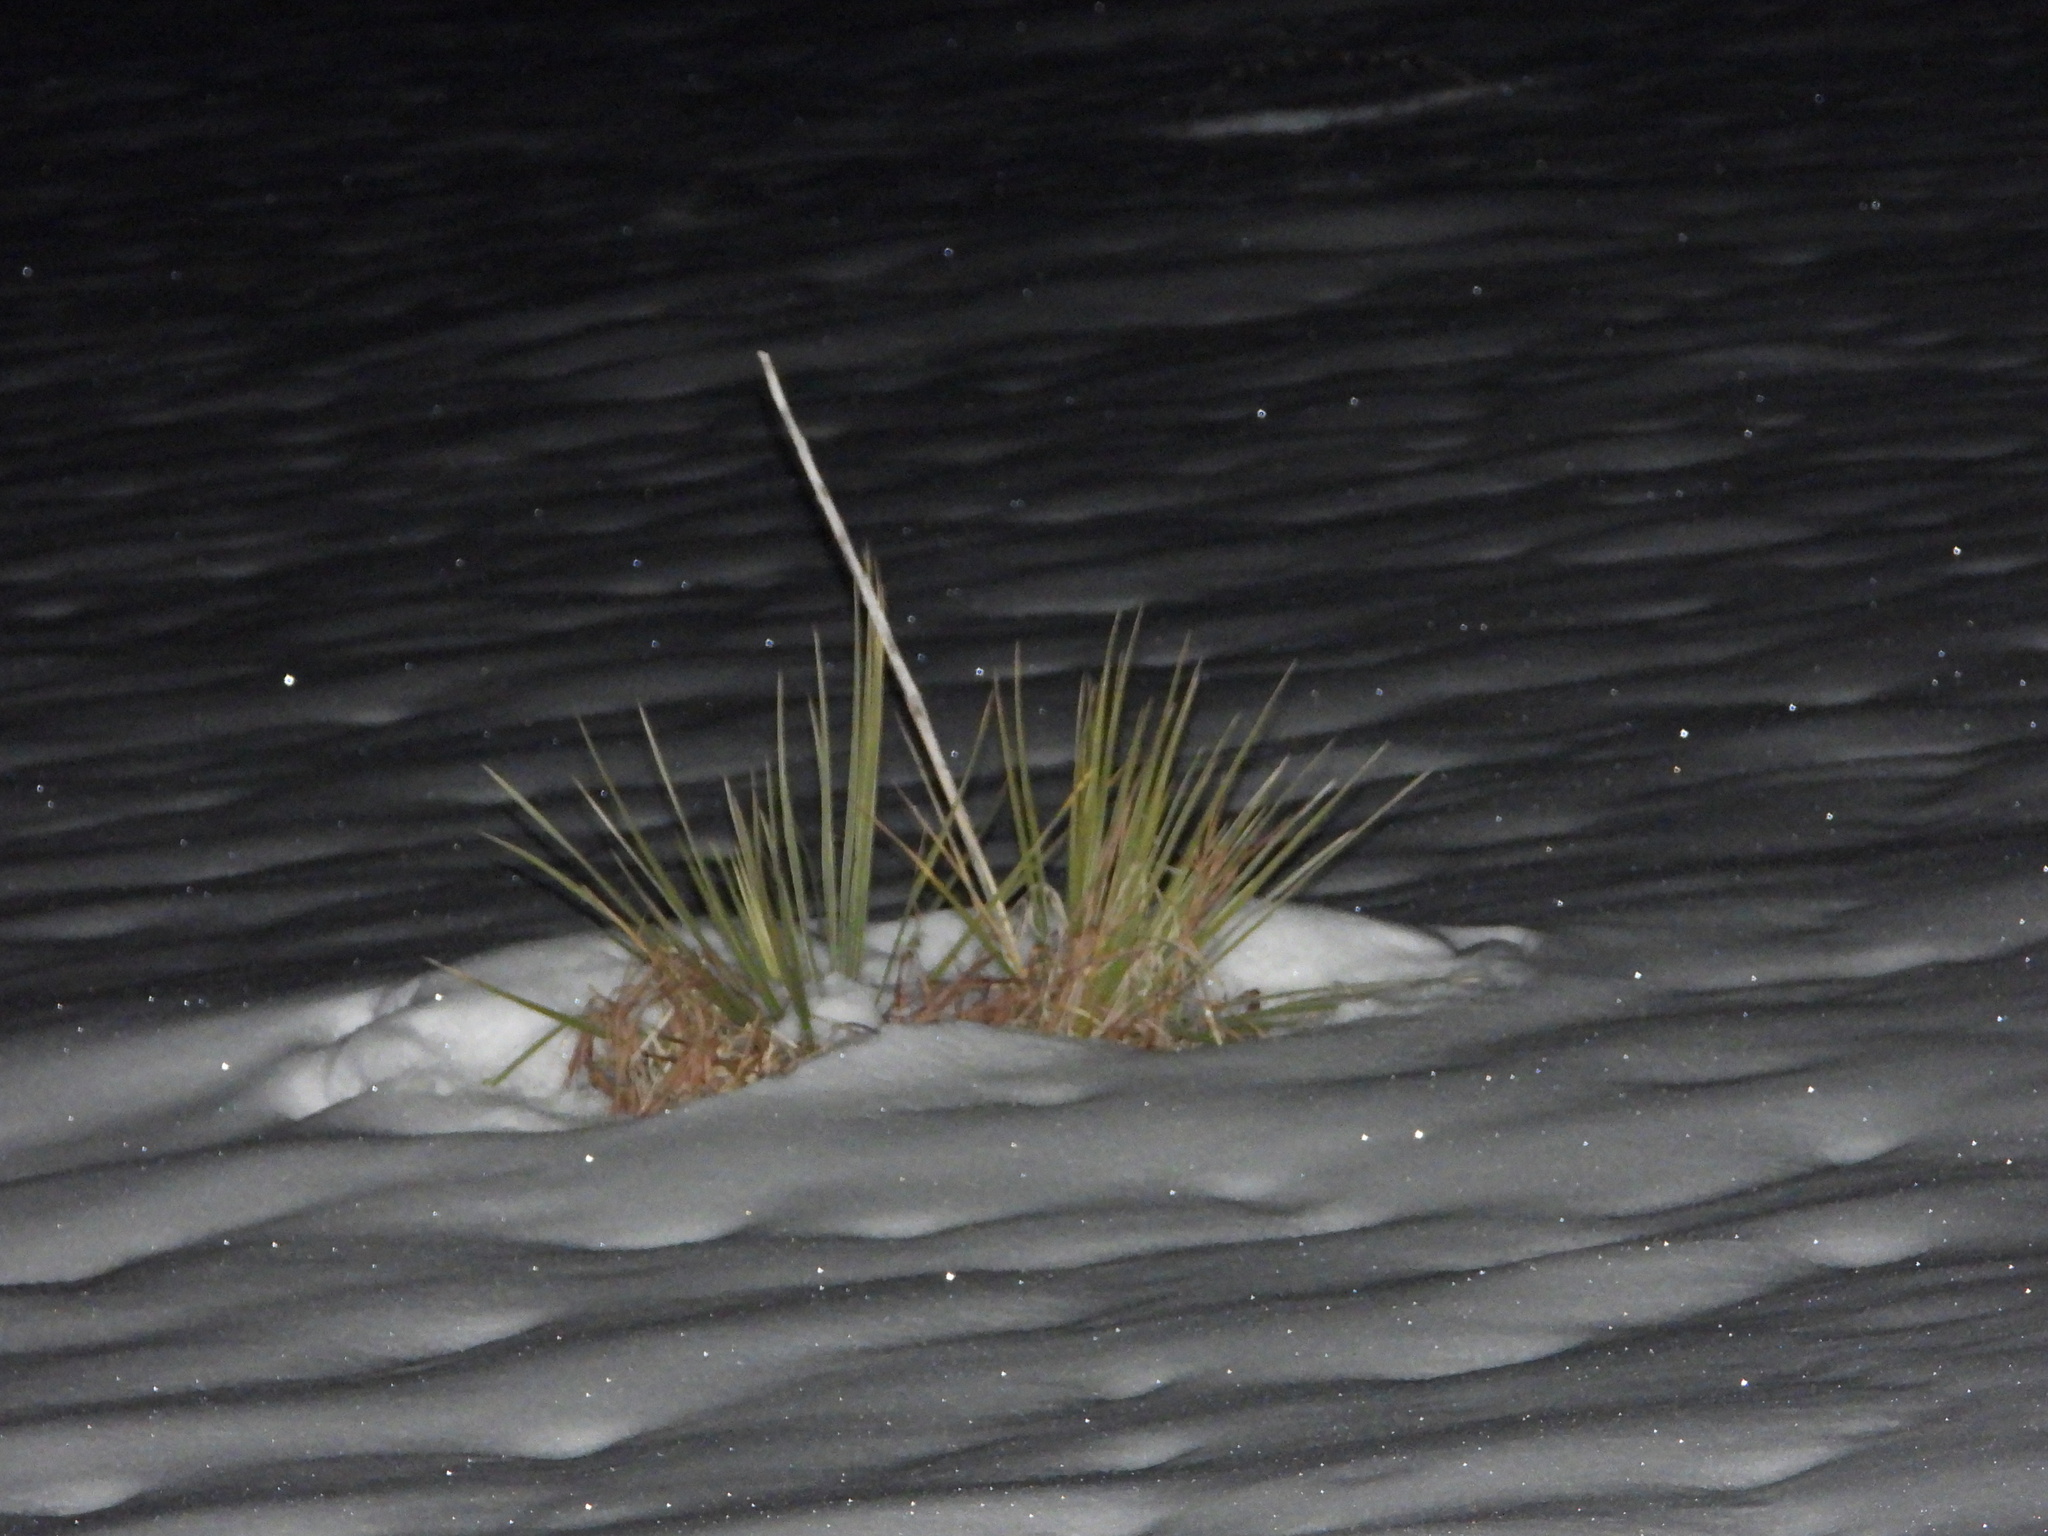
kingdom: Plantae
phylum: Tracheophyta
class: Liliopsida
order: Asparagales
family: Asparagaceae
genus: Yucca
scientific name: Yucca glauca
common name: Great plains yucca
